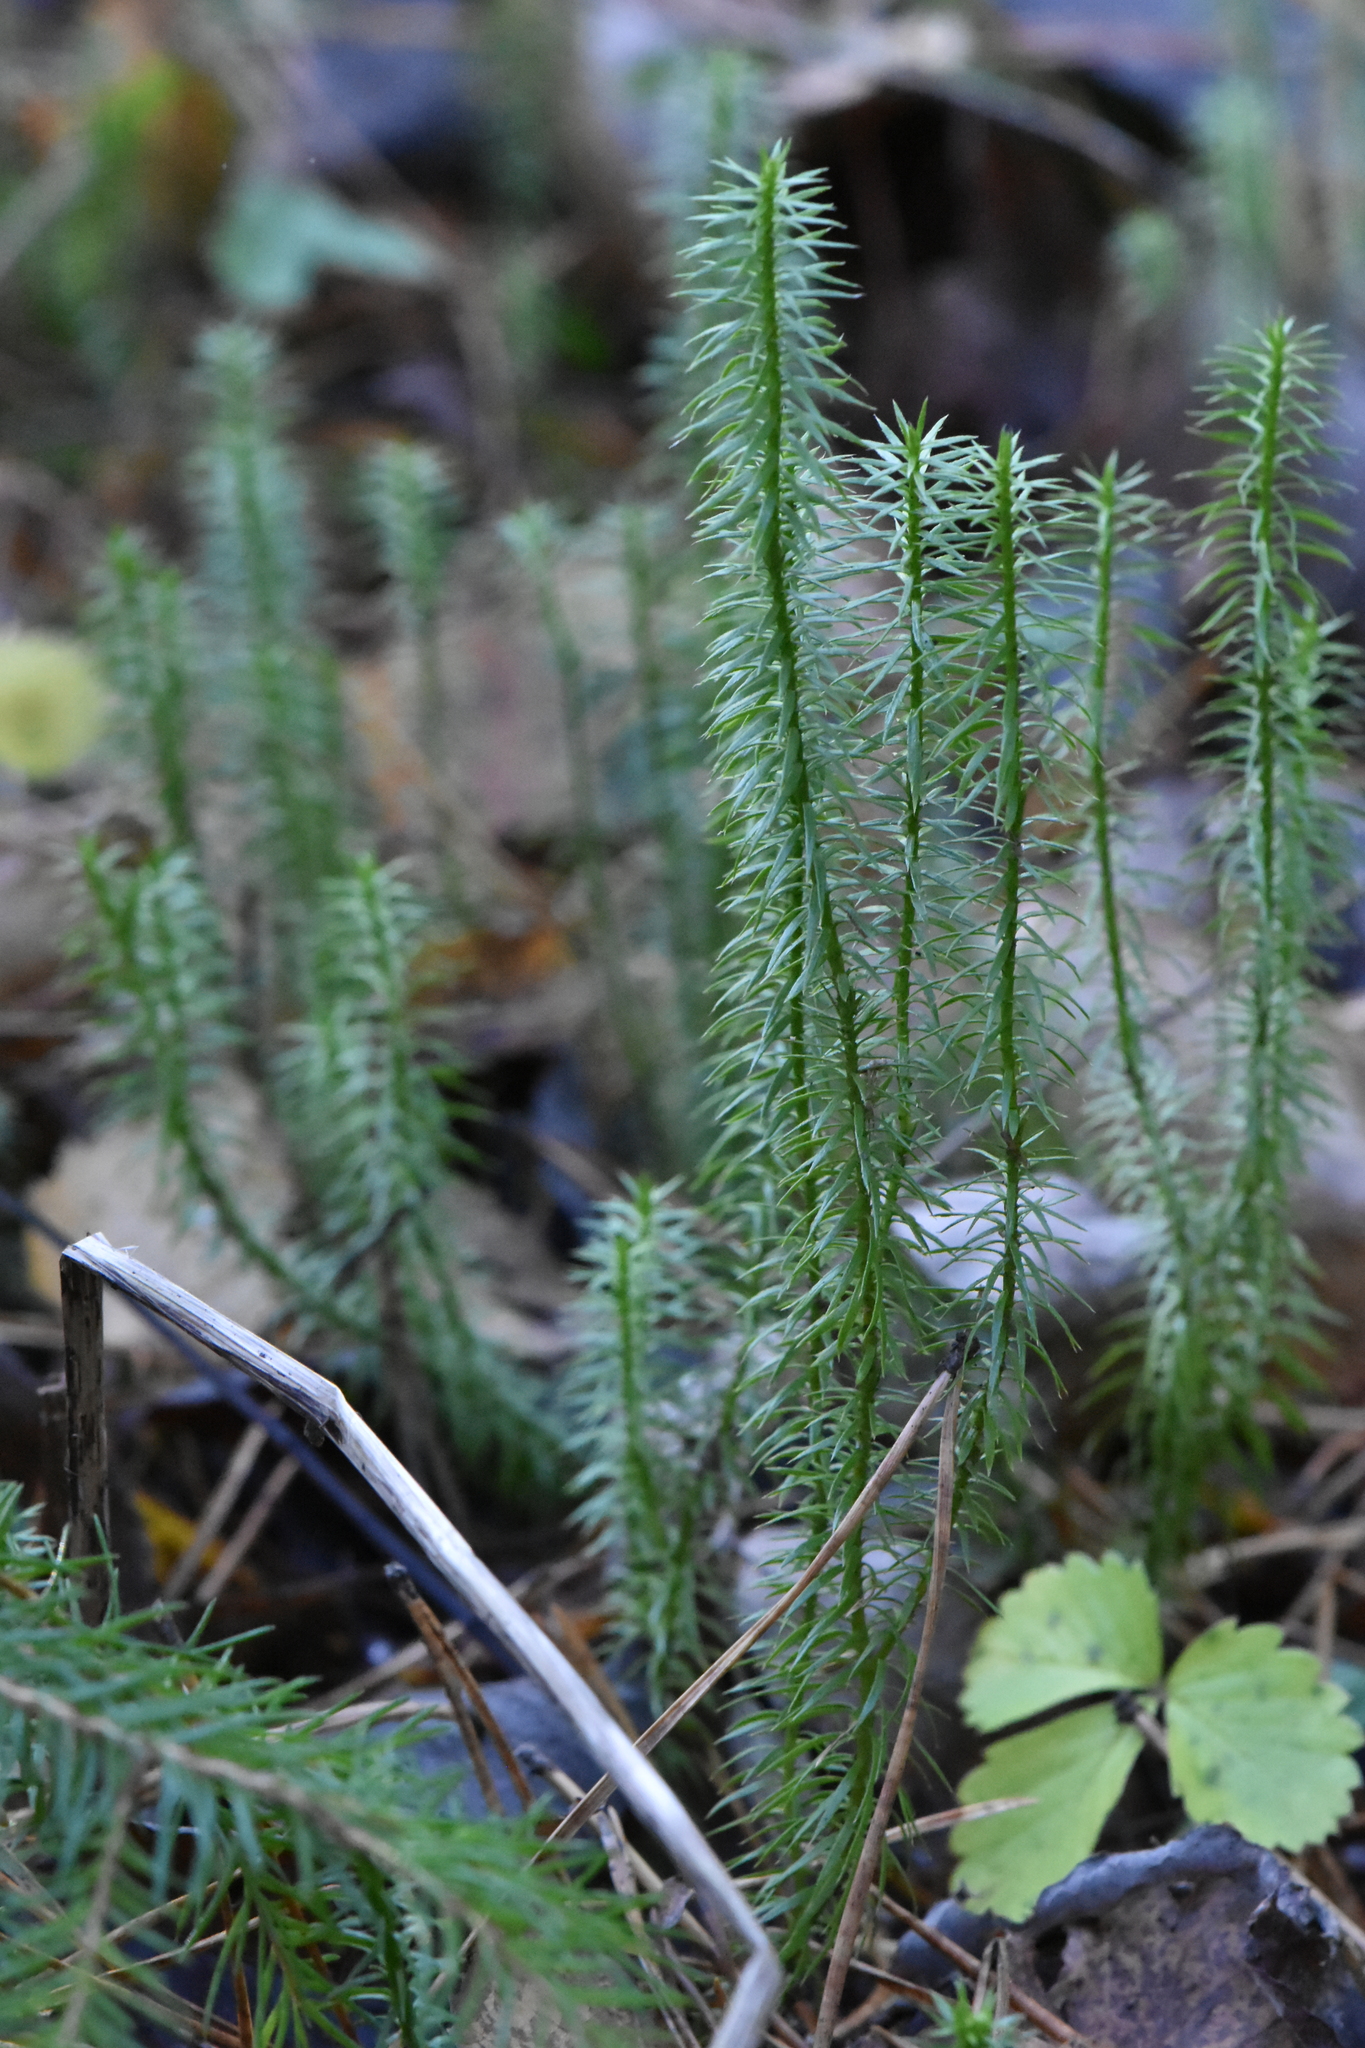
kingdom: Plantae
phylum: Tracheophyta
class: Lycopodiopsida
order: Lycopodiales
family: Lycopodiaceae
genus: Spinulum
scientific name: Spinulum annotinum
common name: Interrupted club-moss
